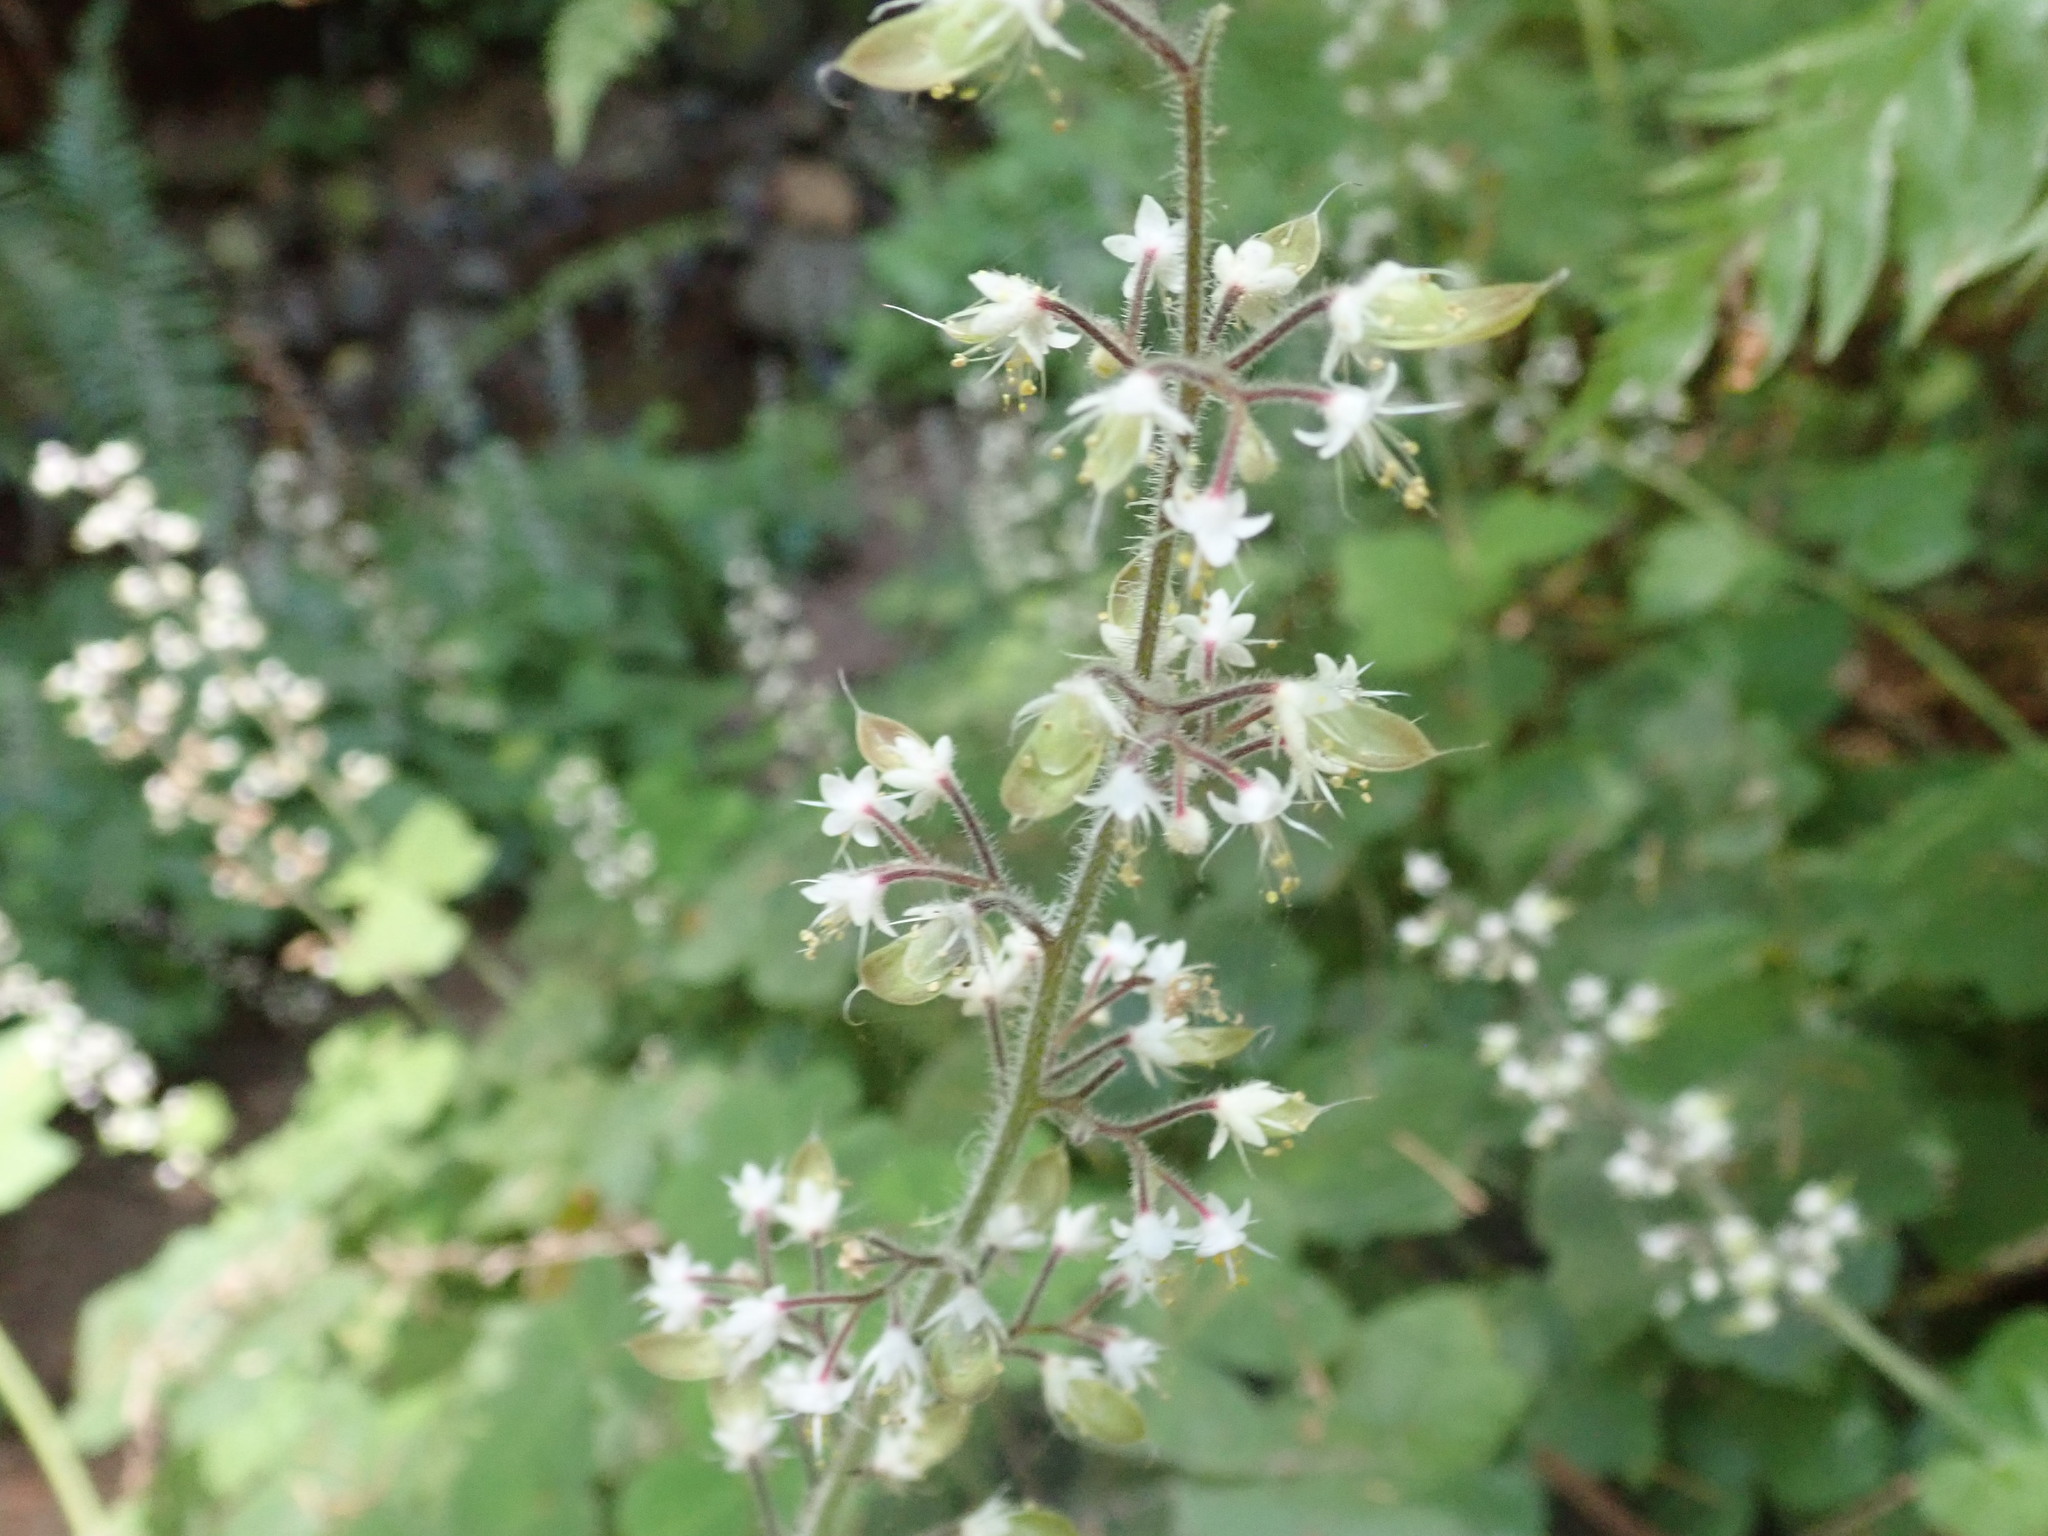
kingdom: Plantae
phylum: Tracheophyta
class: Magnoliopsida
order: Saxifragales
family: Saxifragaceae
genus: Tiarella
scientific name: Tiarella trifoliata
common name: Sugar-scoop
